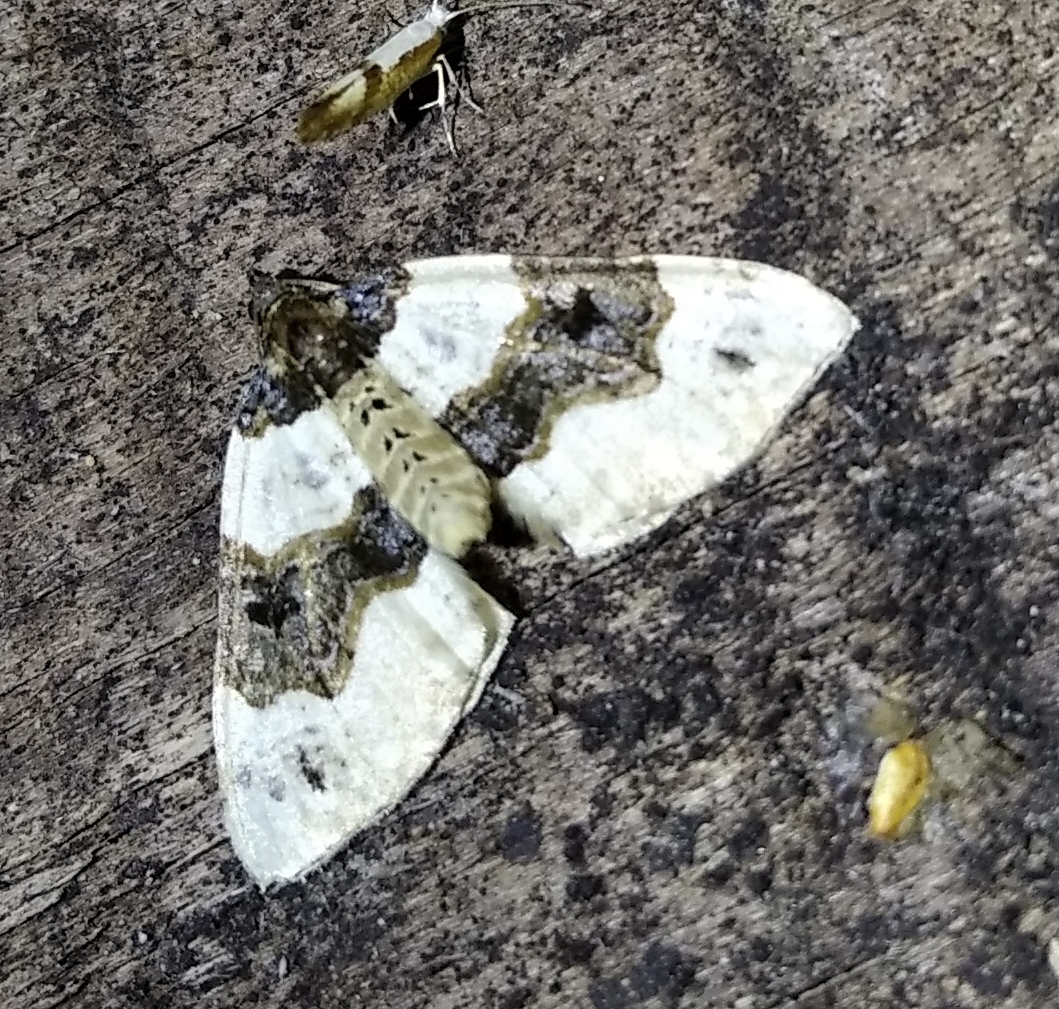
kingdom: Animalia
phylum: Arthropoda
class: Insecta
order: Lepidoptera
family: Geometridae
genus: Cosmorhoe
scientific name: Cosmorhoe ocellata
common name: Purple bar
